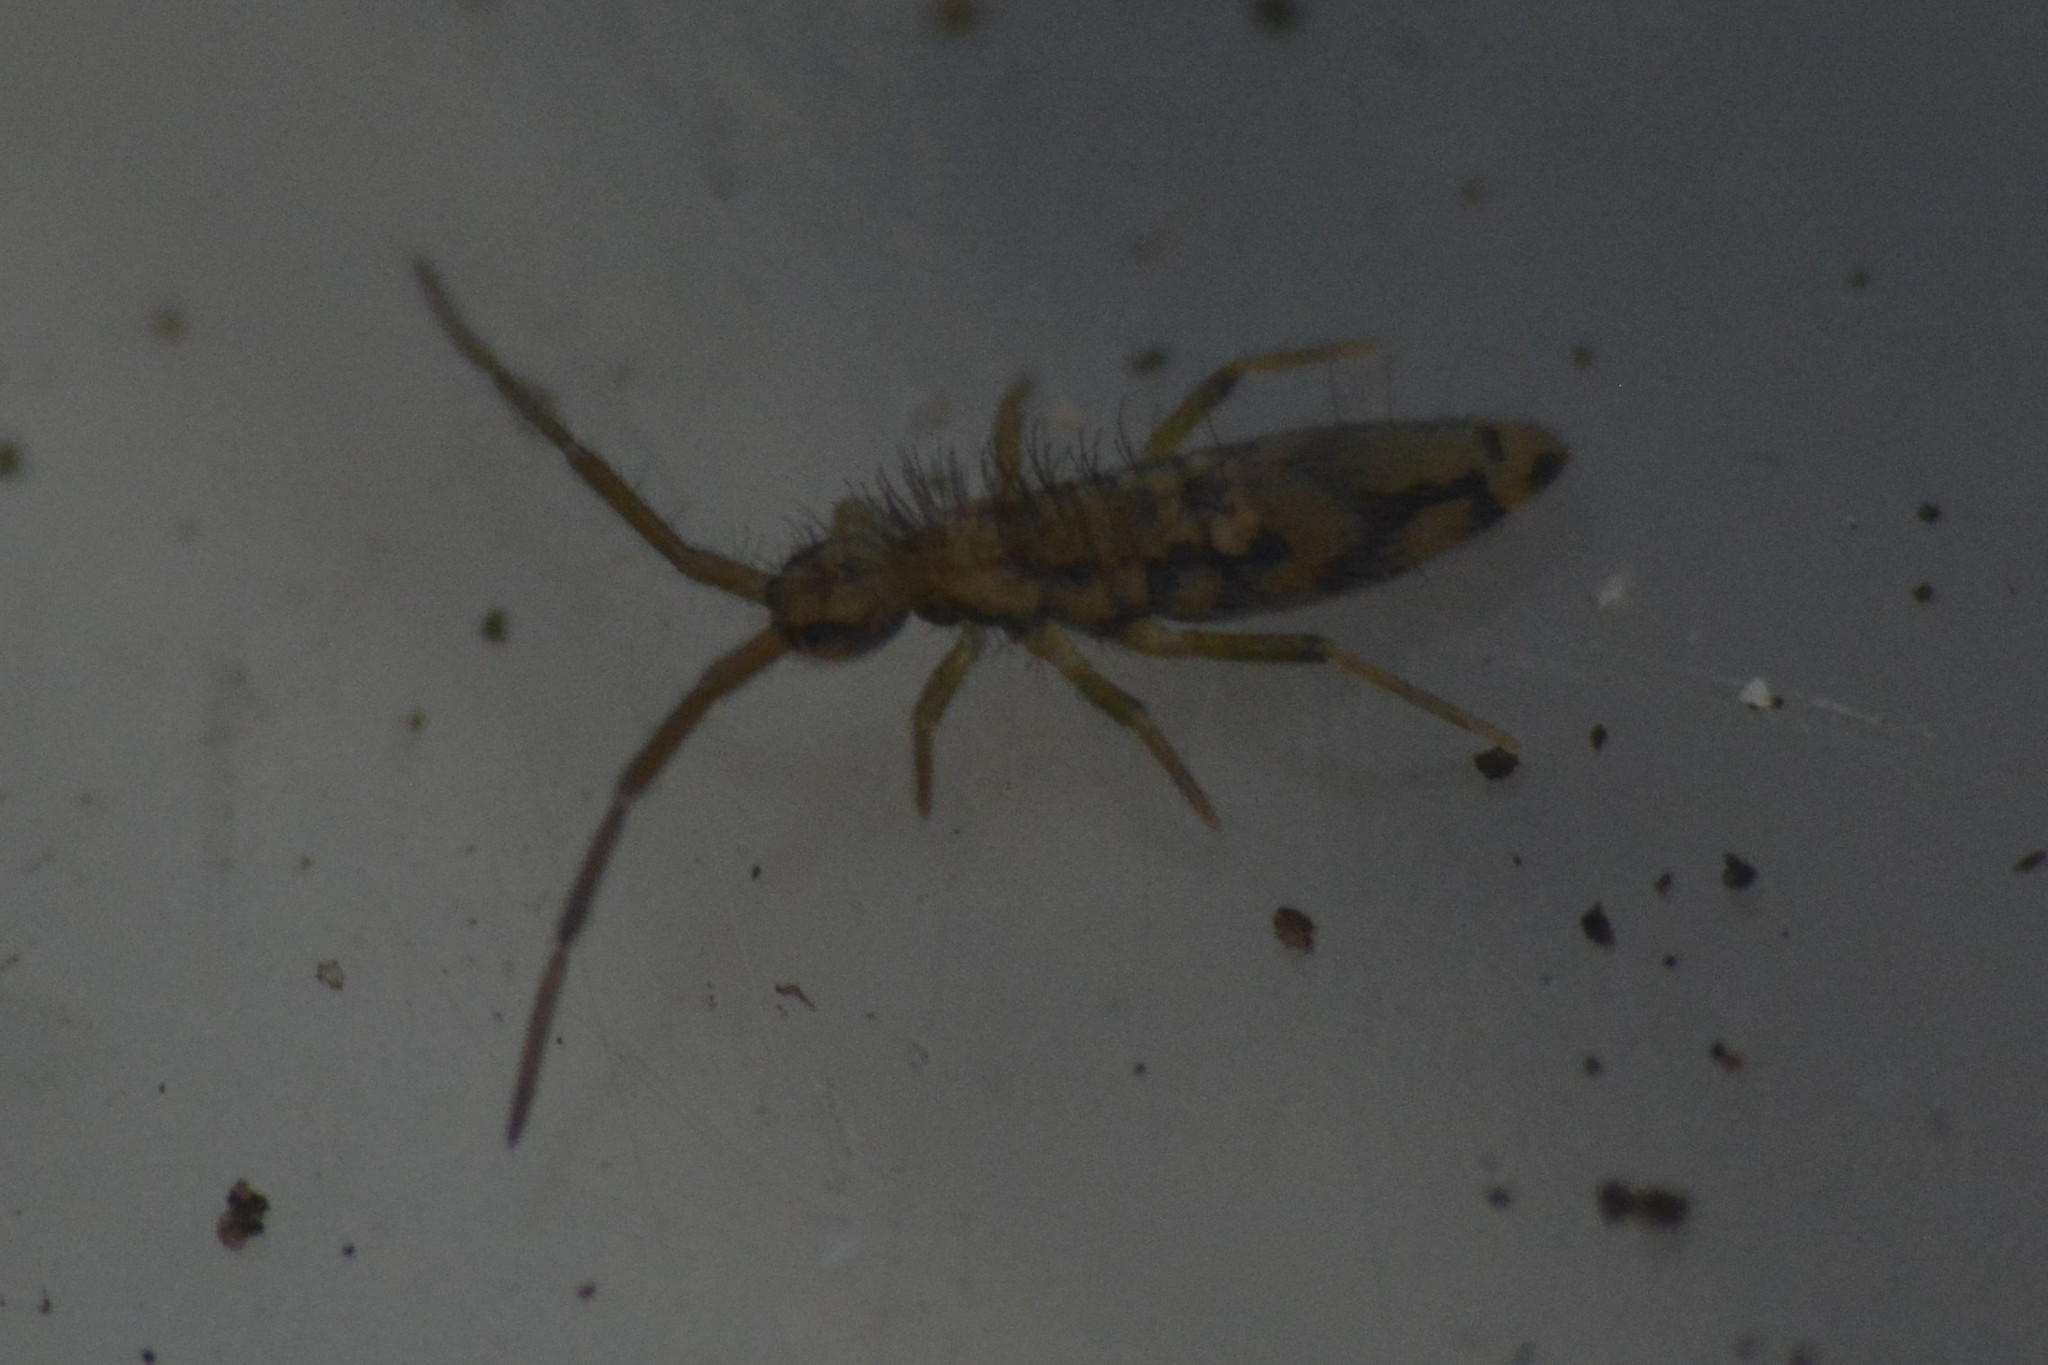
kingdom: Animalia
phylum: Arthropoda
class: Collembola
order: Entomobryomorpha
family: Entomobryidae
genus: Entomobrya
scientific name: Entomobrya intermedia
